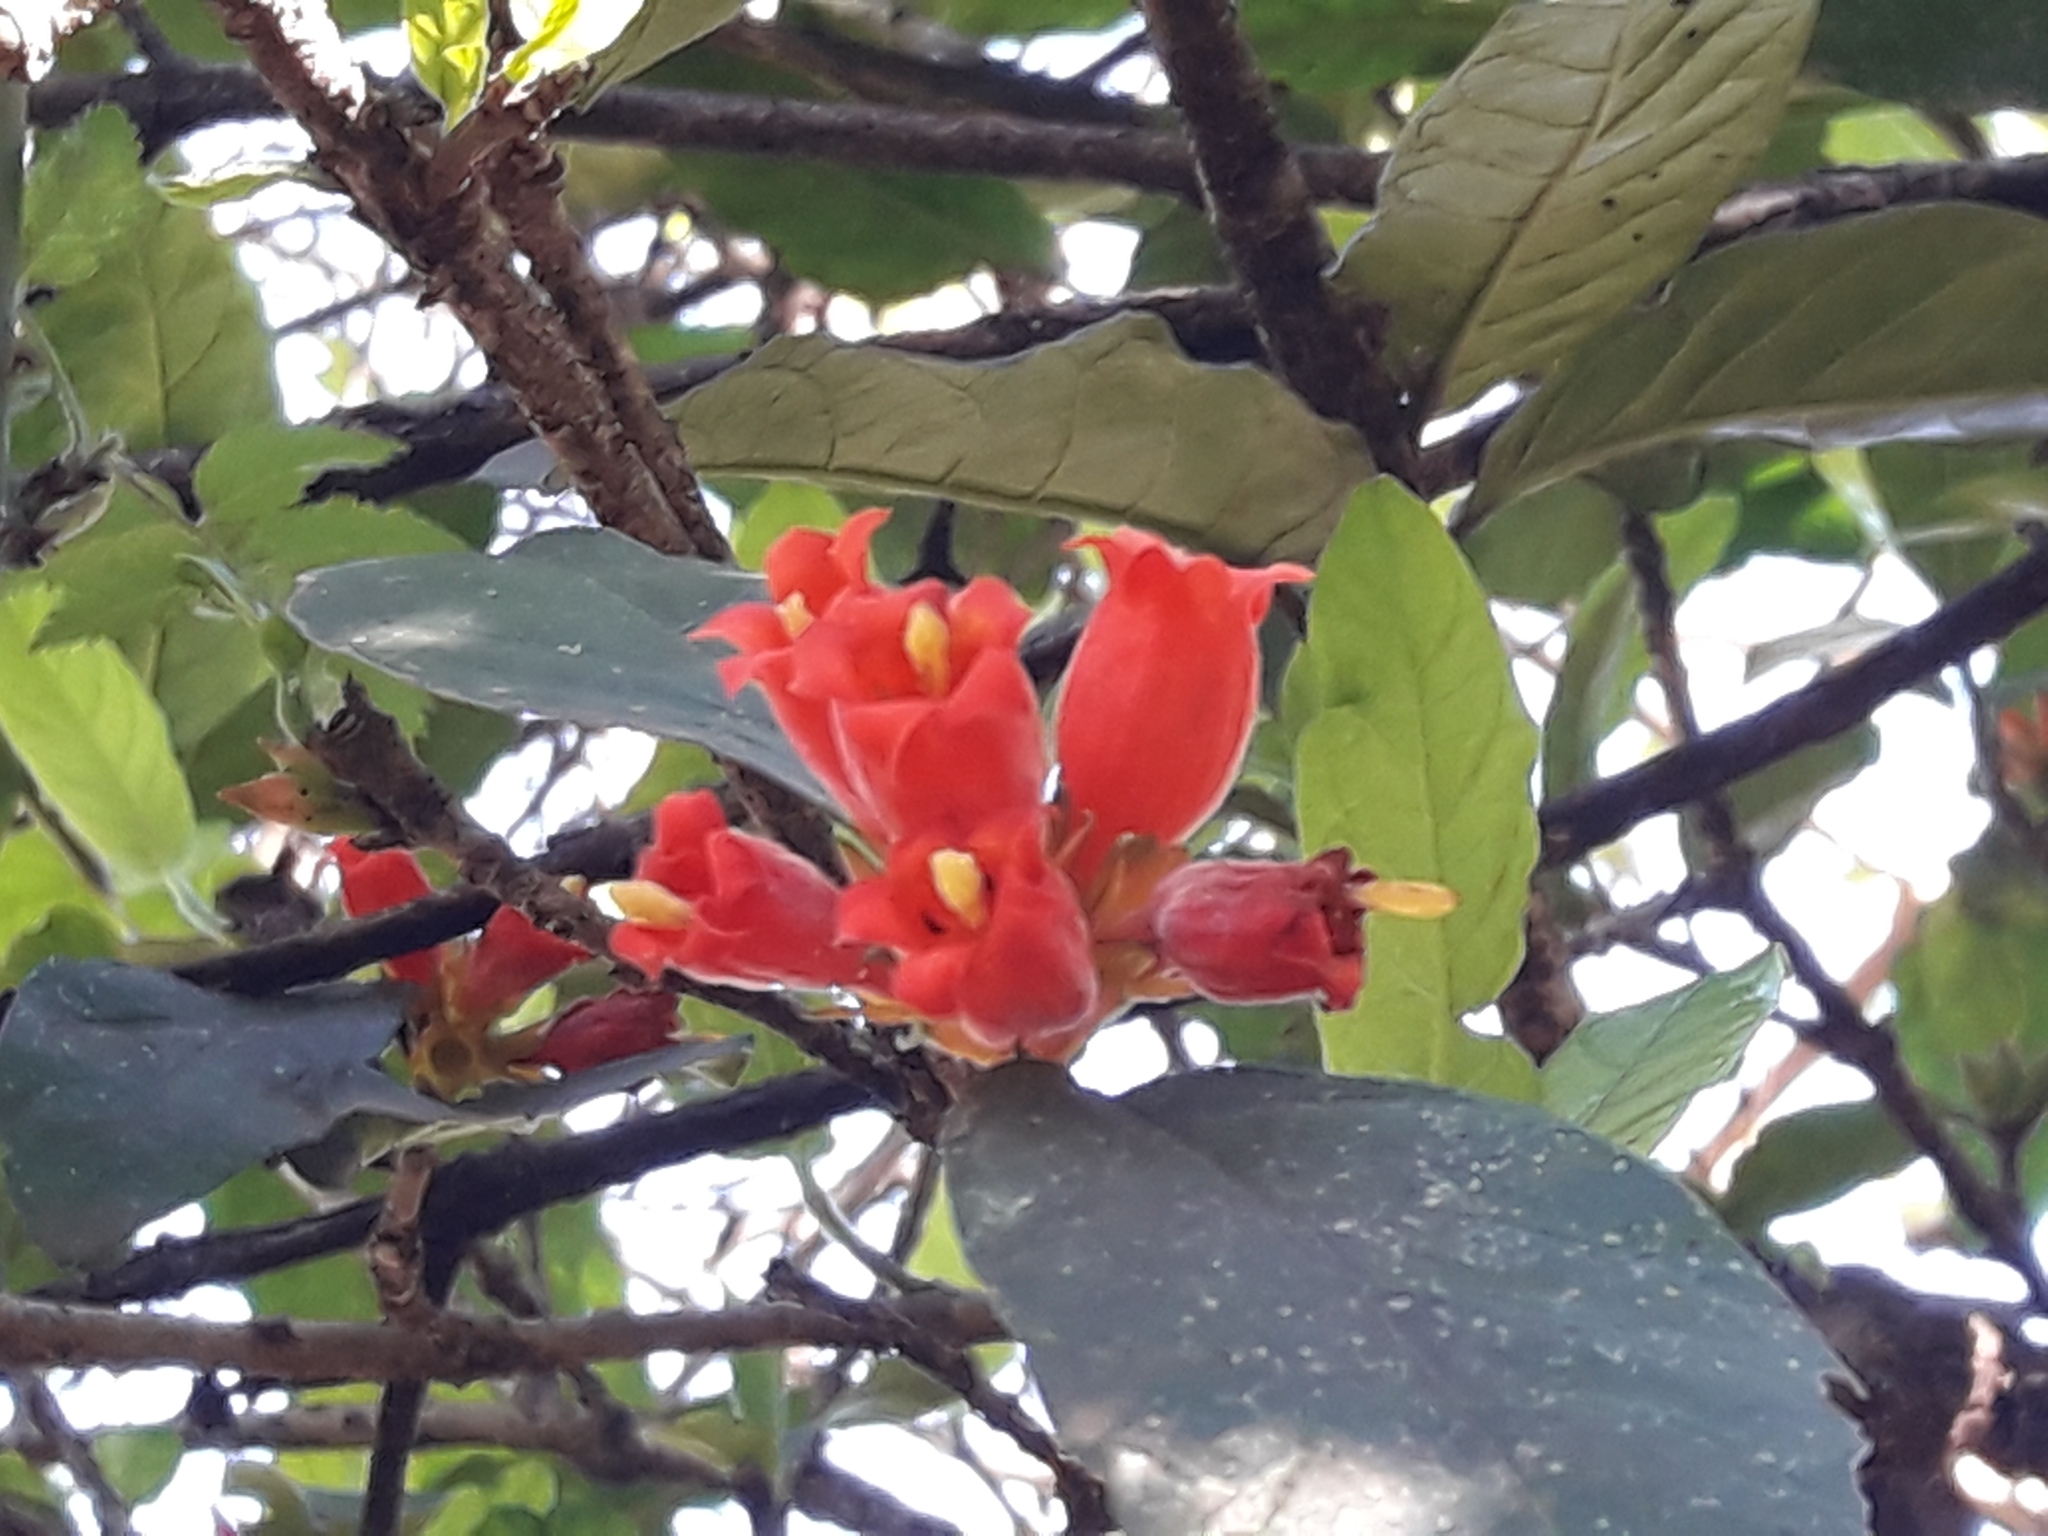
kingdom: Plantae
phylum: Tracheophyta
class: Magnoliopsida
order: Gentianales
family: Rubiaceae
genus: Burchellia
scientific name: Burchellia bubalina
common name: Wild pomegranate
